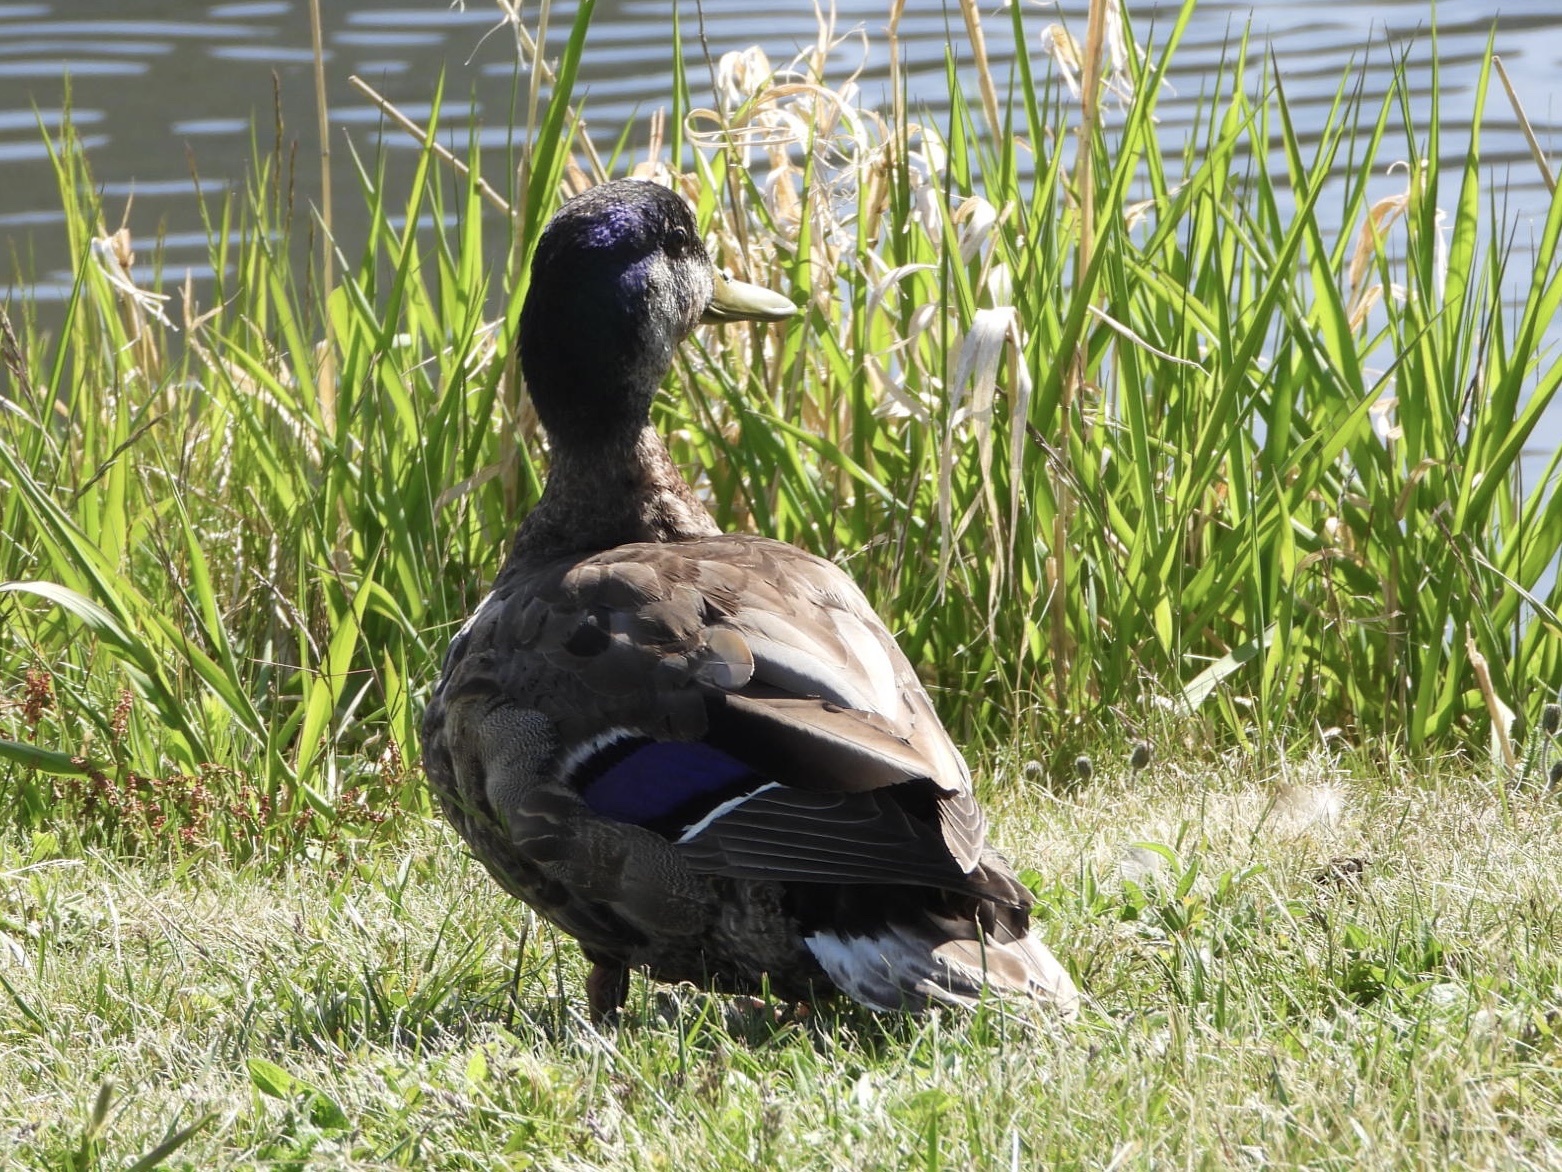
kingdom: Animalia
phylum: Chordata
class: Aves
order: Anseriformes
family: Anatidae
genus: Anas
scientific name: Anas
